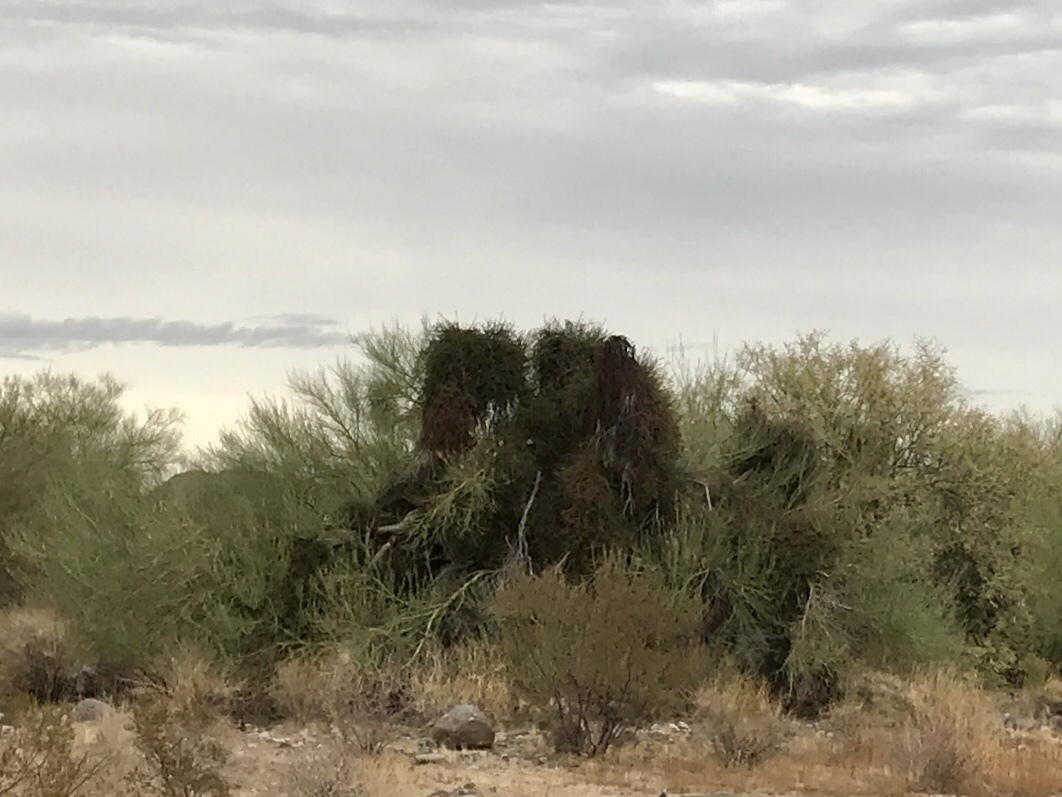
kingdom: Plantae
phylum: Tracheophyta
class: Magnoliopsida
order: Santalales
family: Viscaceae
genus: Phoradendron
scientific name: Phoradendron californicum
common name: Acacia mistletoe
